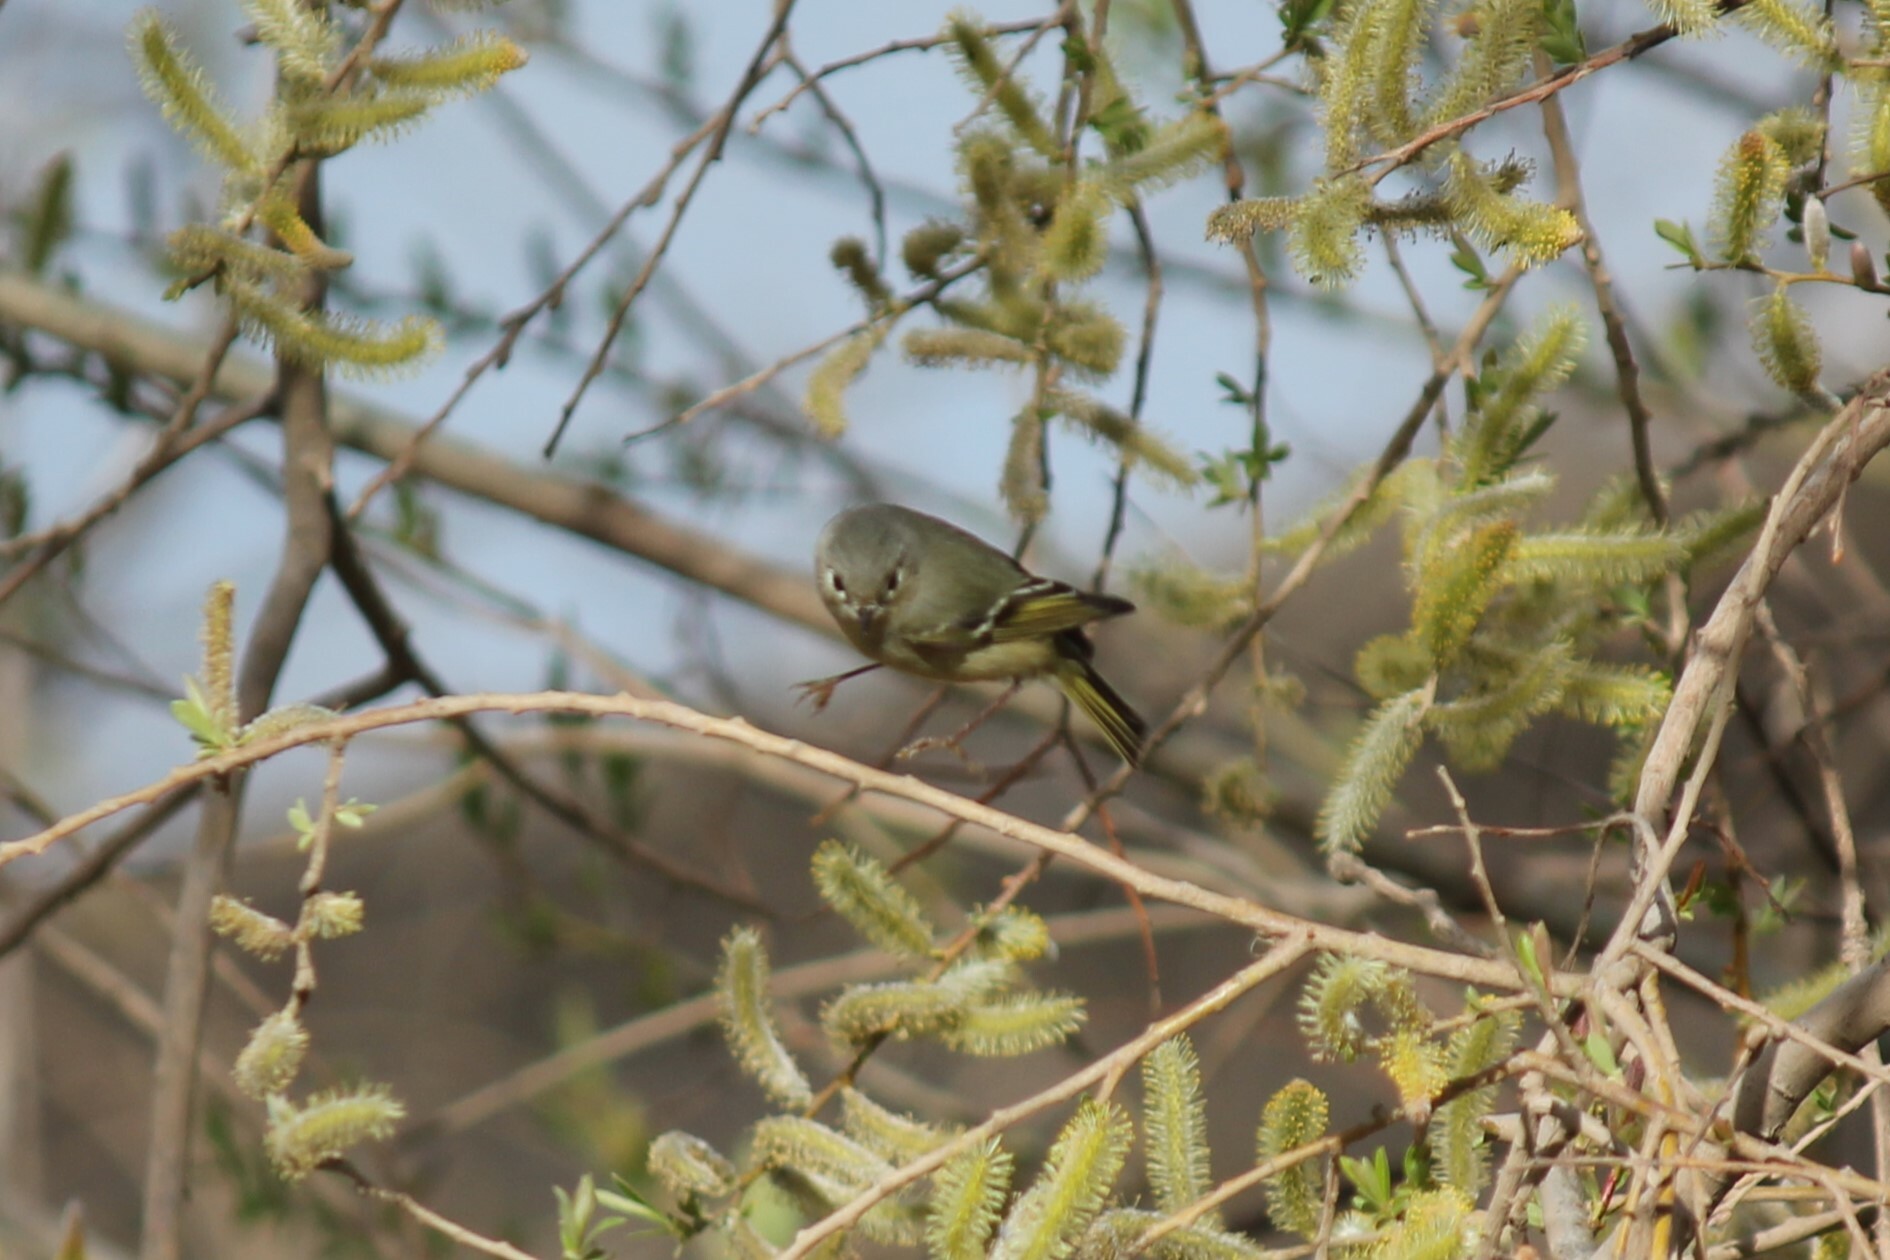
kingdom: Animalia
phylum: Chordata
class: Aves
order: Passeriformes
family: Regulidae
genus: Regulus
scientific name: Regulus calendula
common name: Ruby-crowned kinglet
